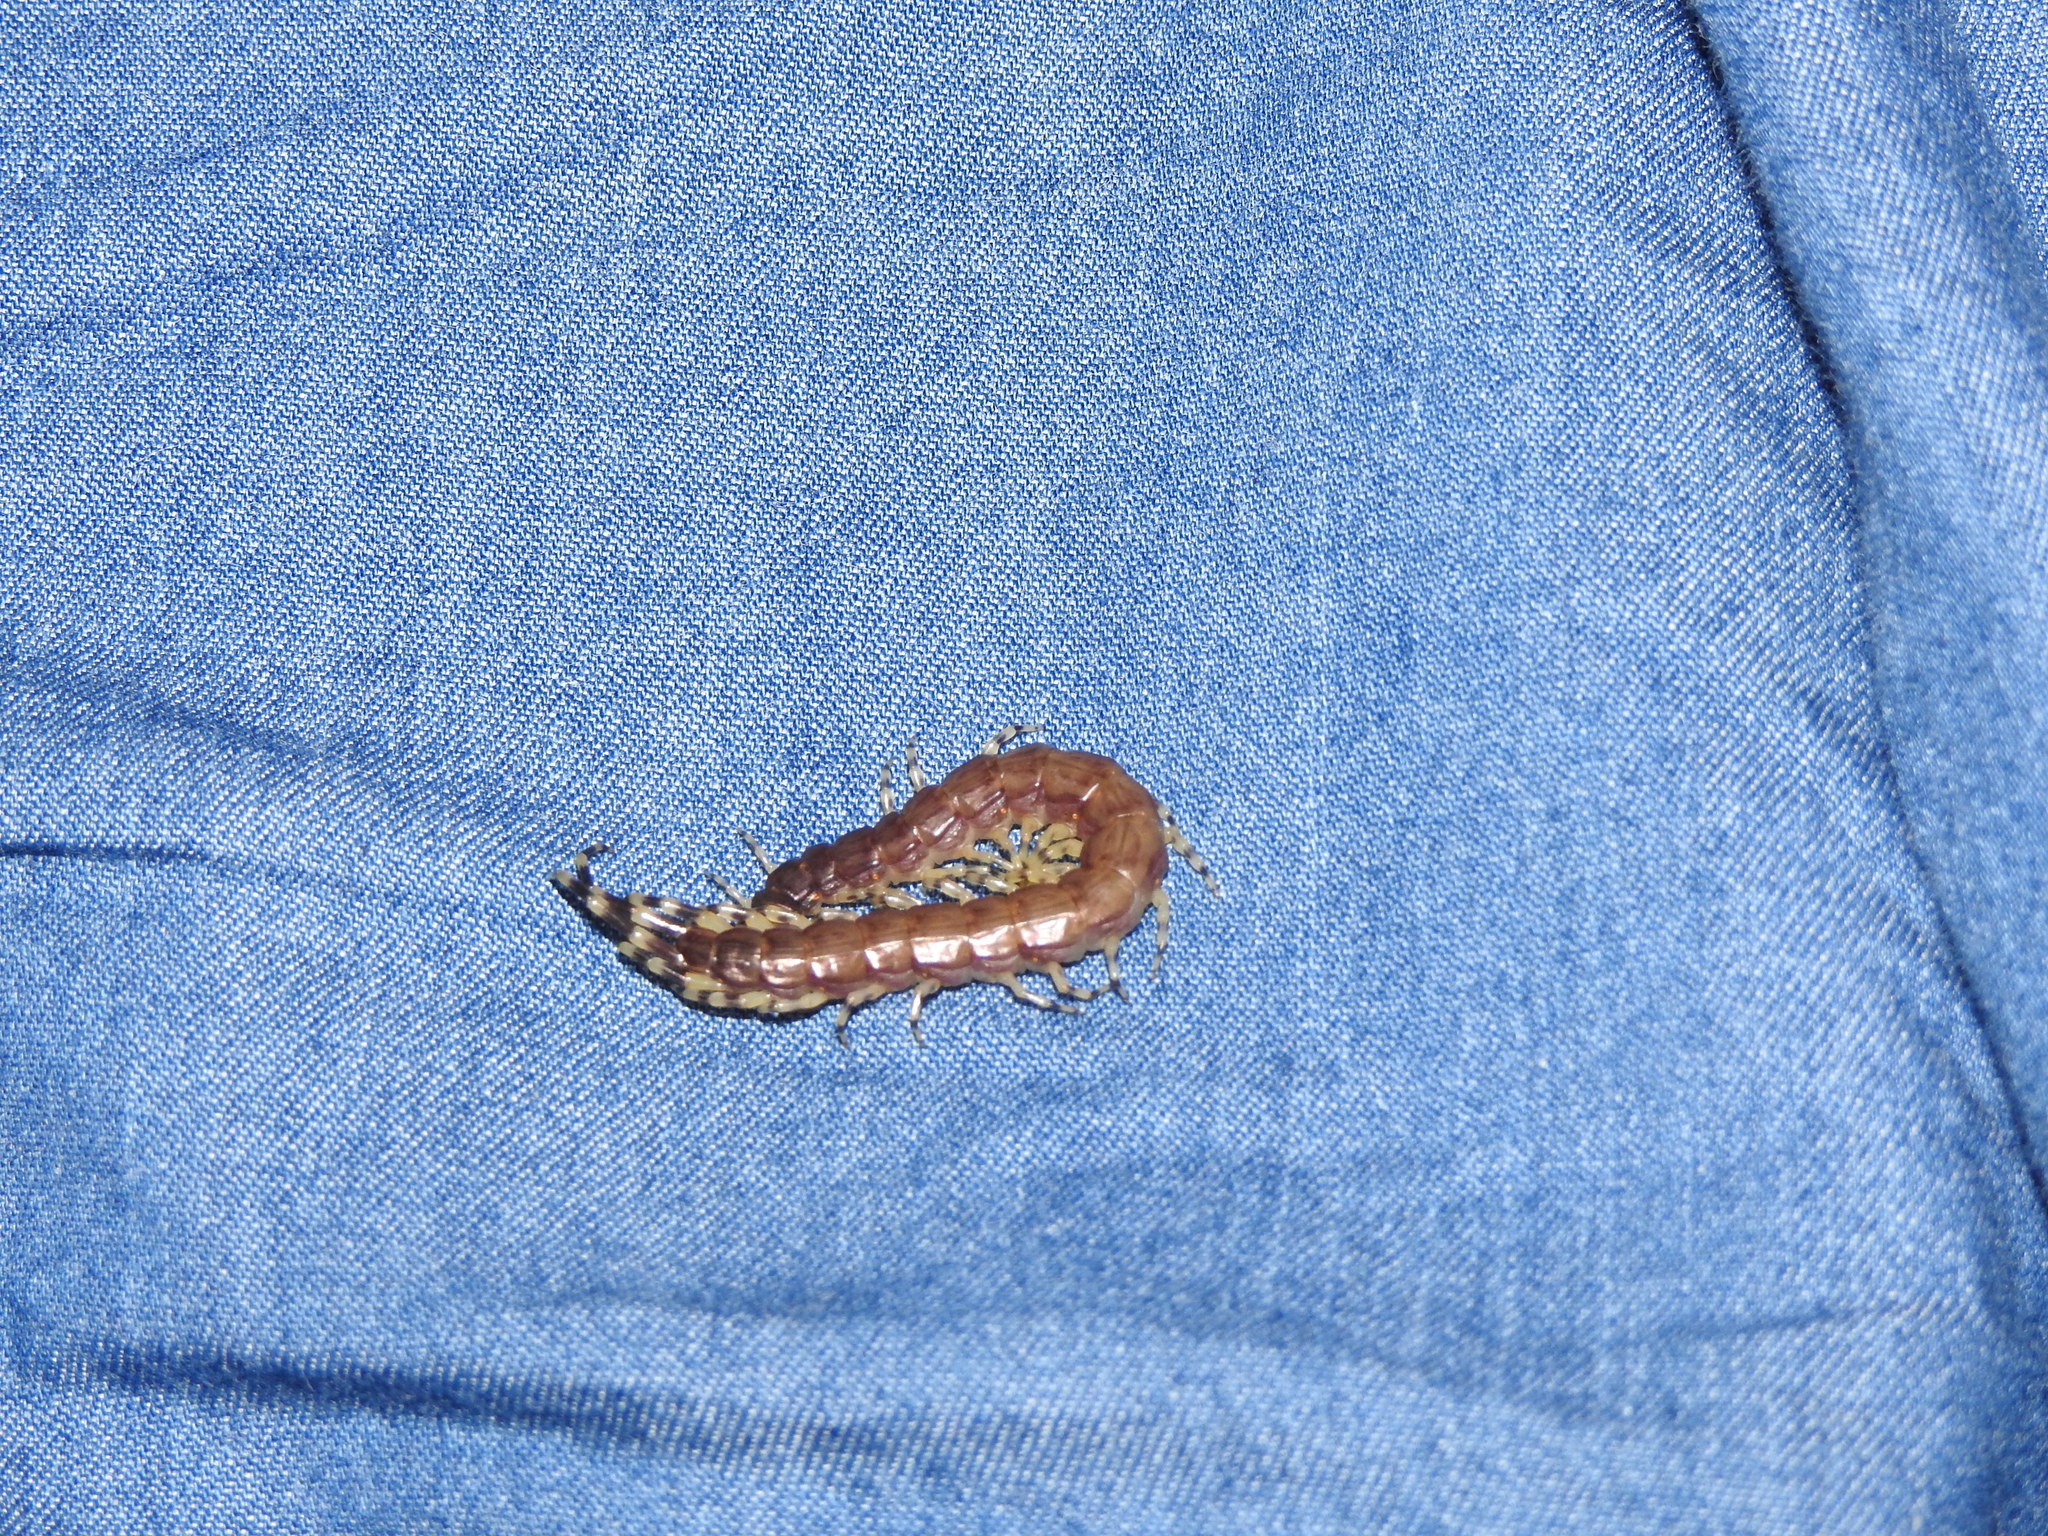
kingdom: Animalia
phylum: Arthropoda
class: Chilopoda
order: Scolopendromorpha
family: Scolopendridae
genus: Otostigmus
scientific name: Otostigmus goeldii
